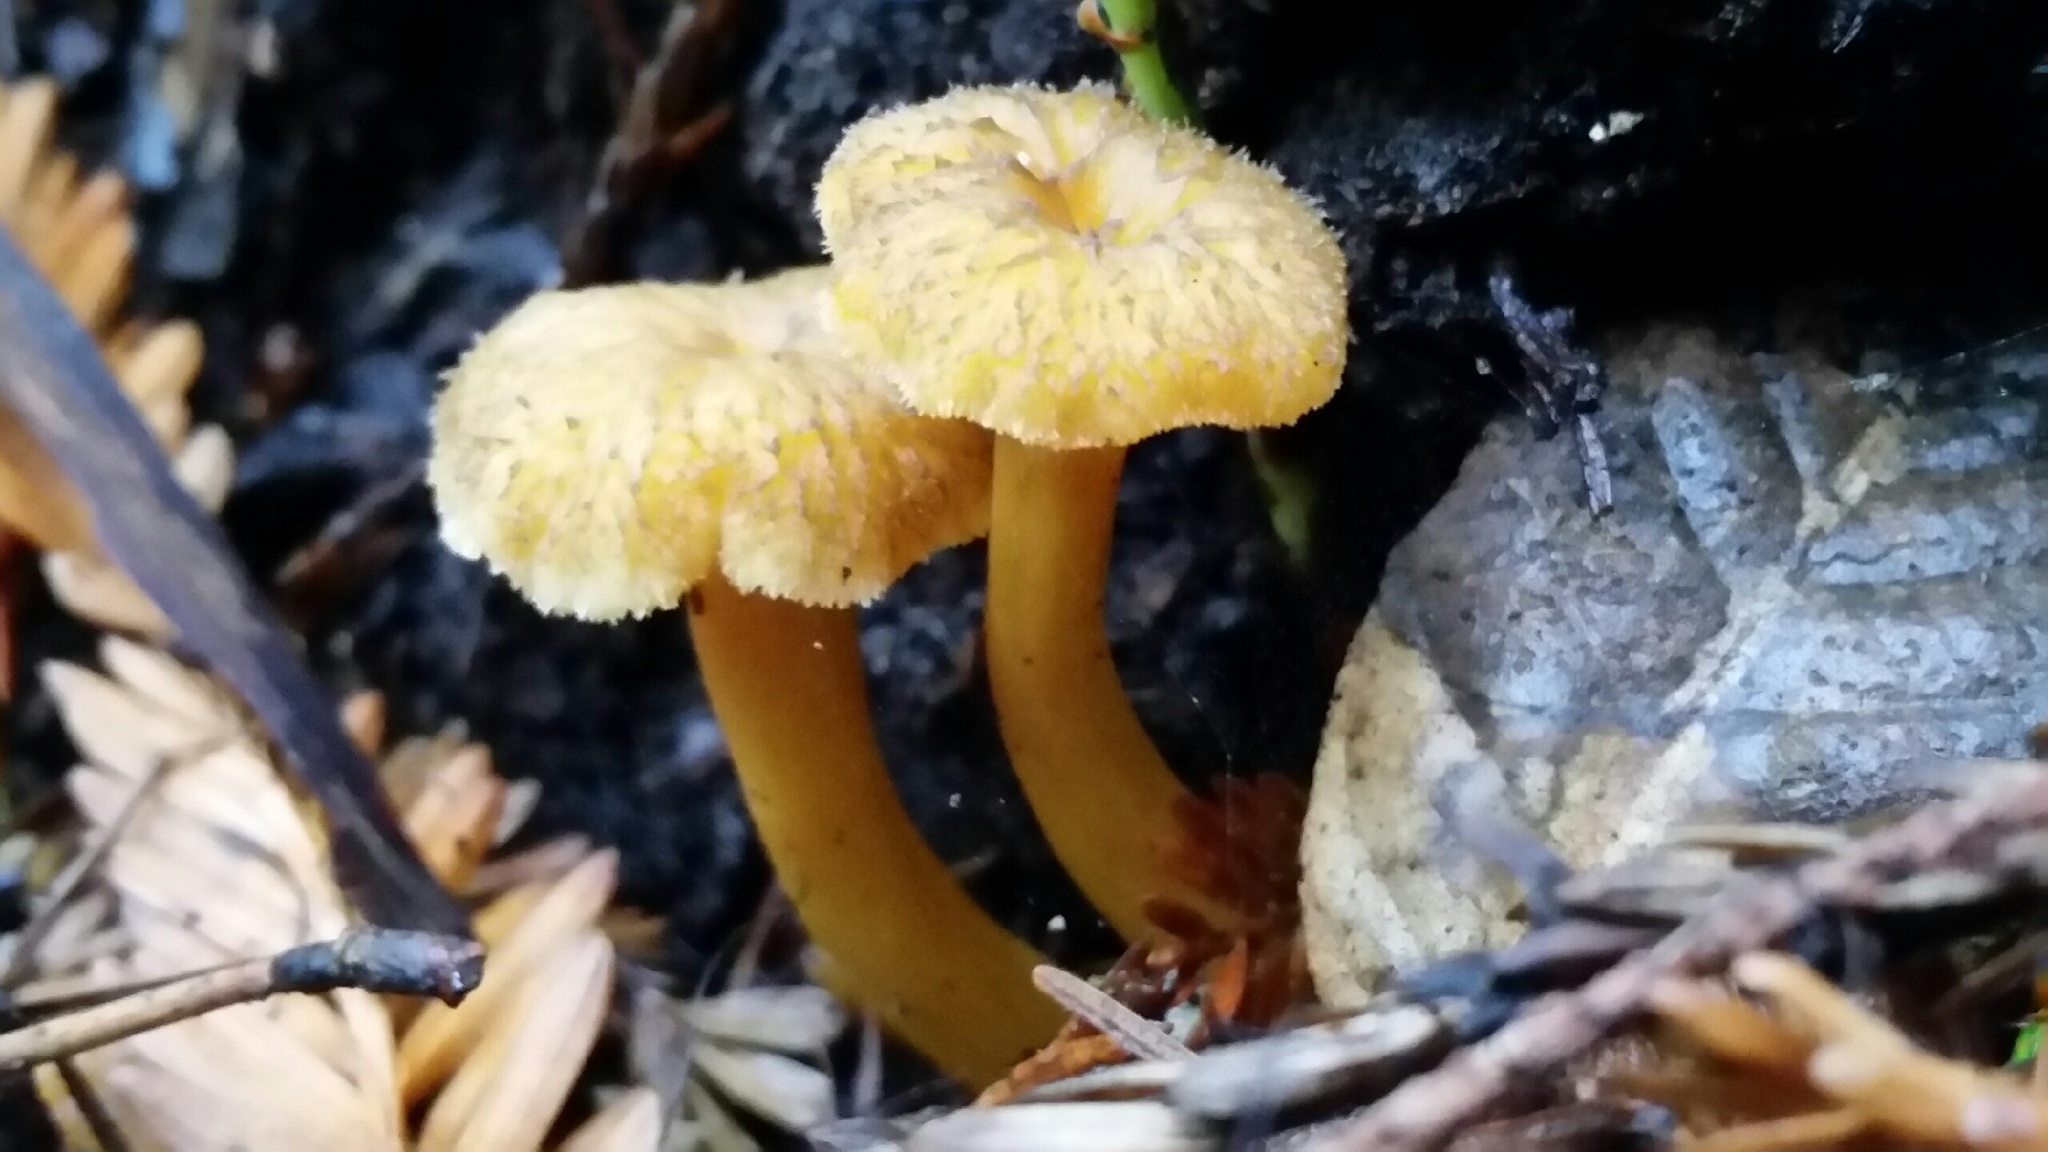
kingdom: Fungi
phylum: Basidiomycota
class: Agaricomycetes
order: Cantharellales
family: Hydnaceae
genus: Craterellus
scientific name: Craterellus tubaeformis
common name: Yellowfoot
